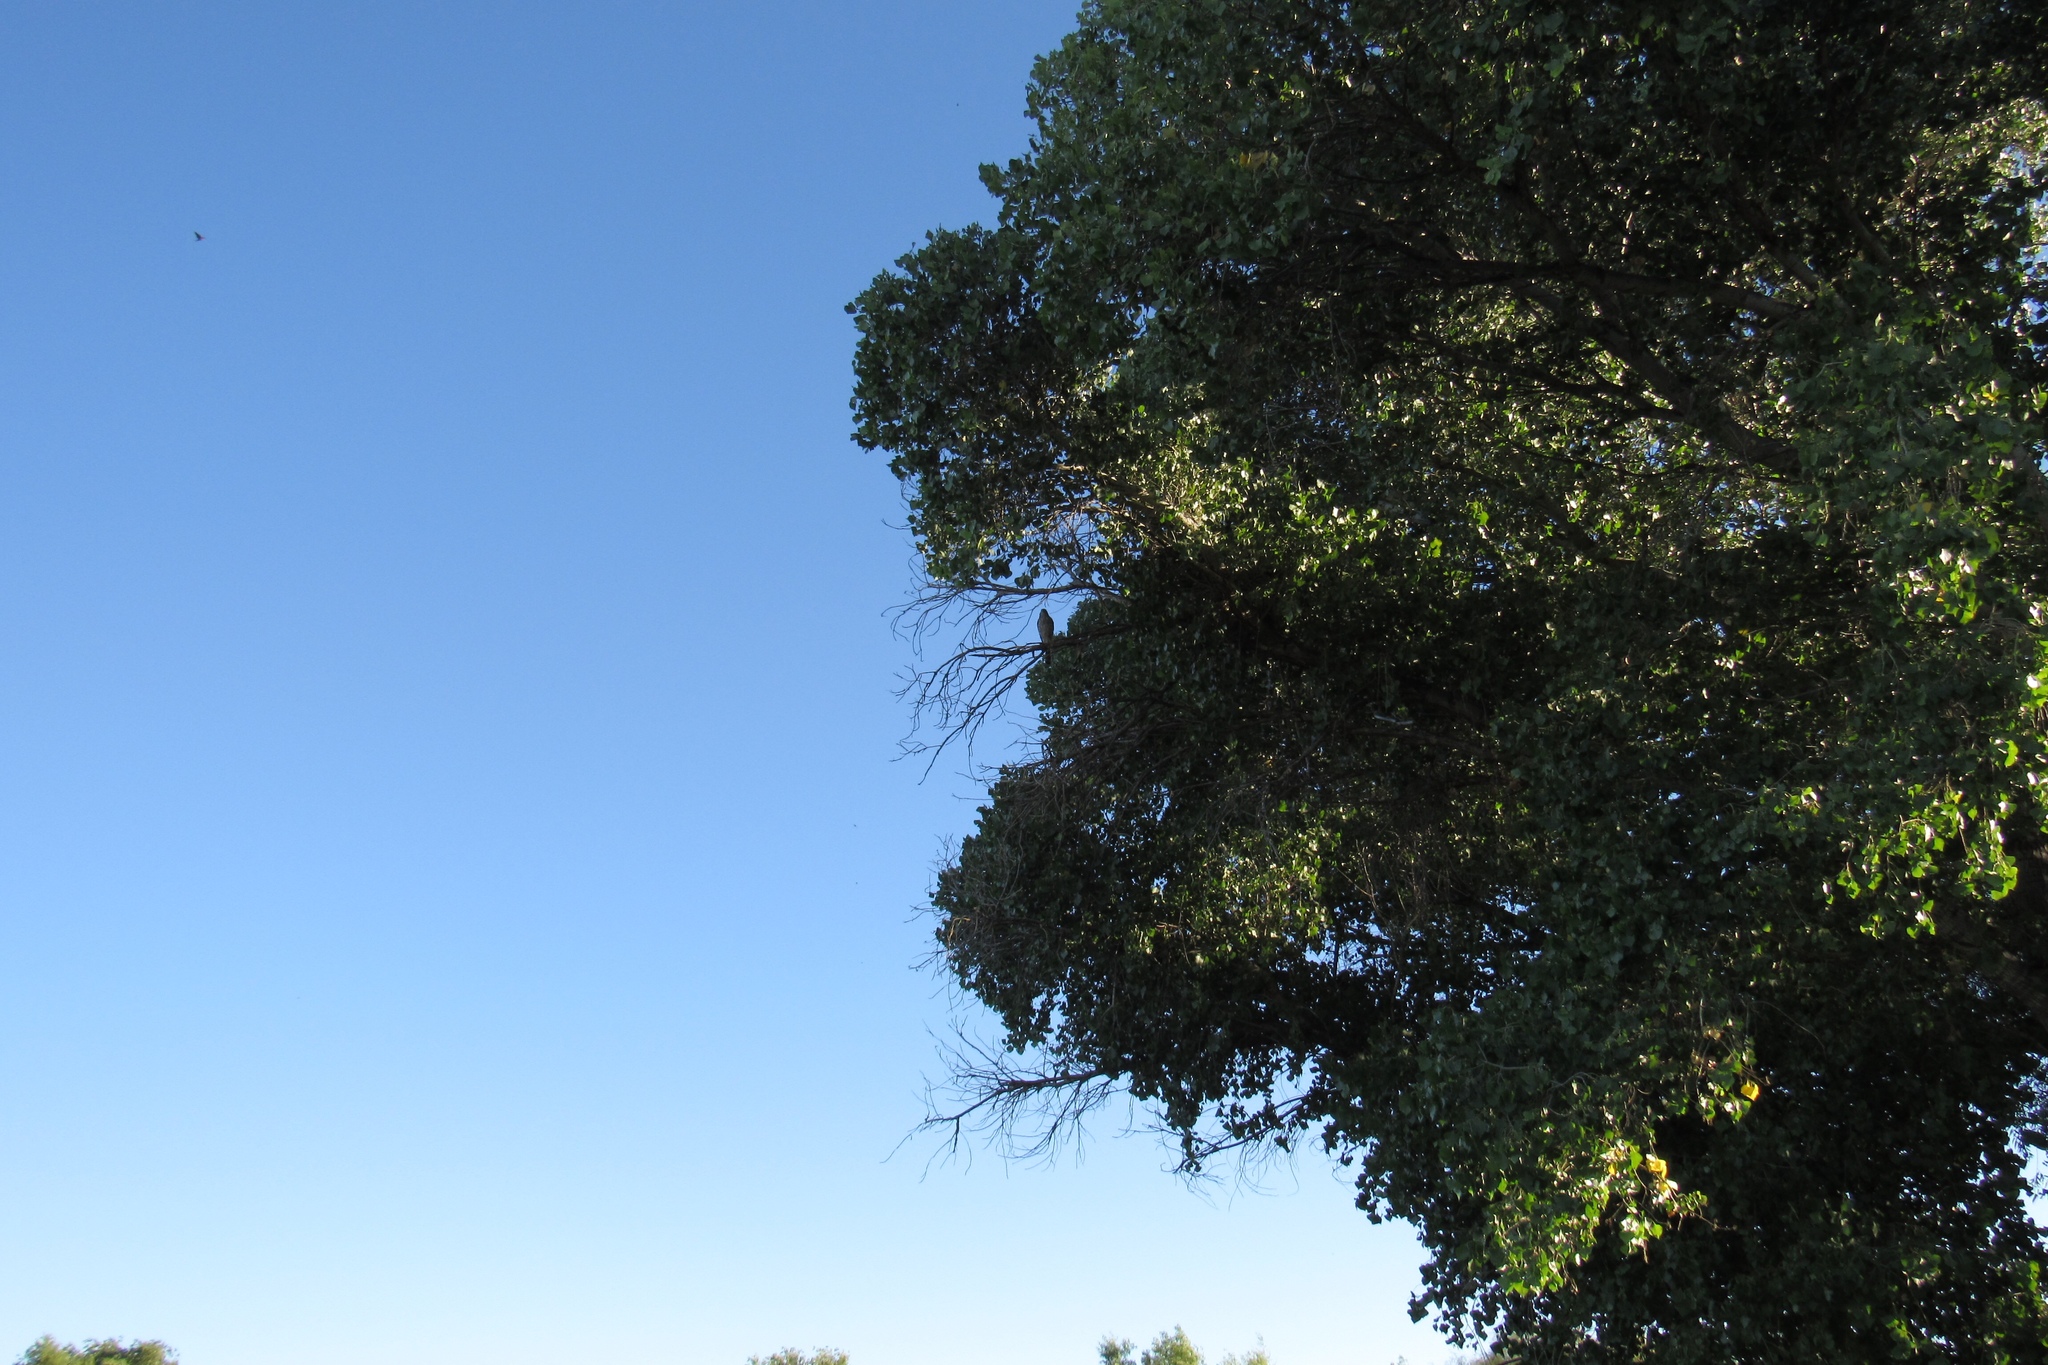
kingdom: Animalia
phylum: Chordata
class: Aves
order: Accipitriformes
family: Accipitridae
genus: Accipiter
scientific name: Accipiter cooperii
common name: Cooper's hawk
